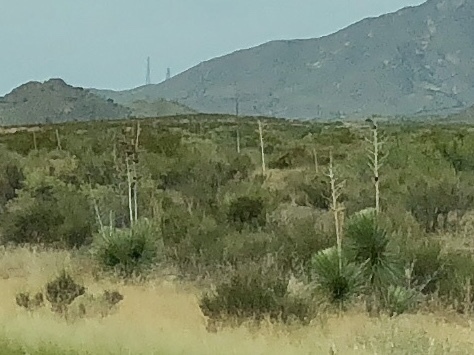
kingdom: Plantae
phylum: Tracheophyta
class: Liliopsida
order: Asparagales
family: Asparagaceae
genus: Yucca
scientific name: Yucca elata
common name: Palmella
